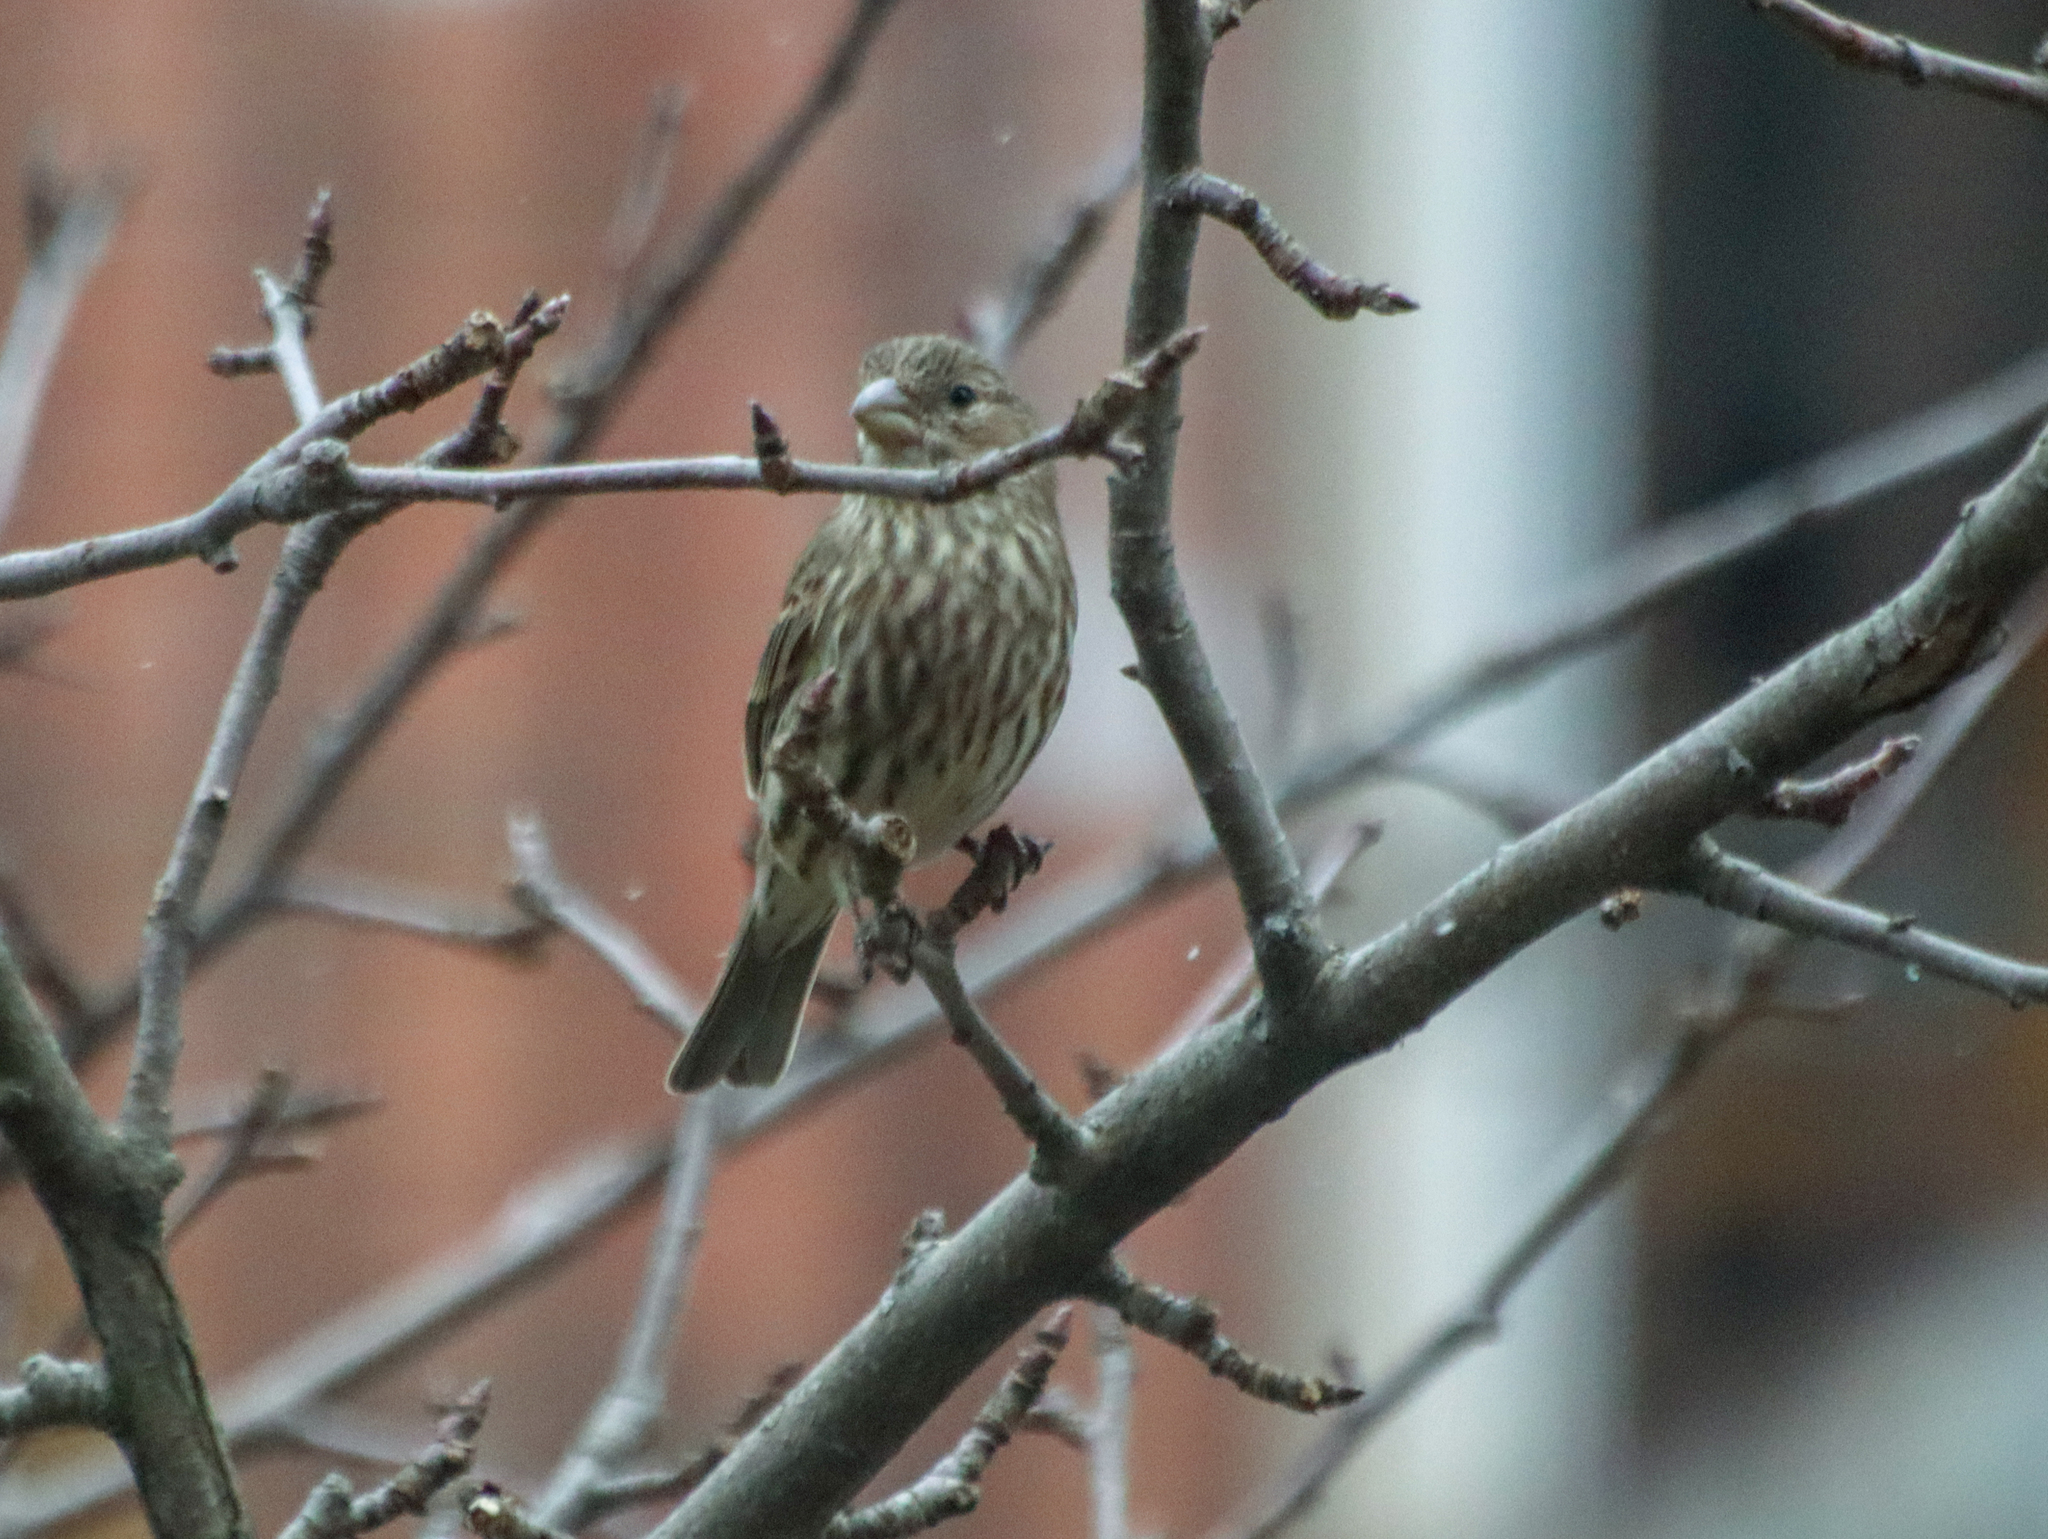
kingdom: Animalia
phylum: Chordata
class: Aves
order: Passeriformes
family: Fringillidae
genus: Haemorhous
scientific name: Haemorhous mexicanus
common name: House finch
